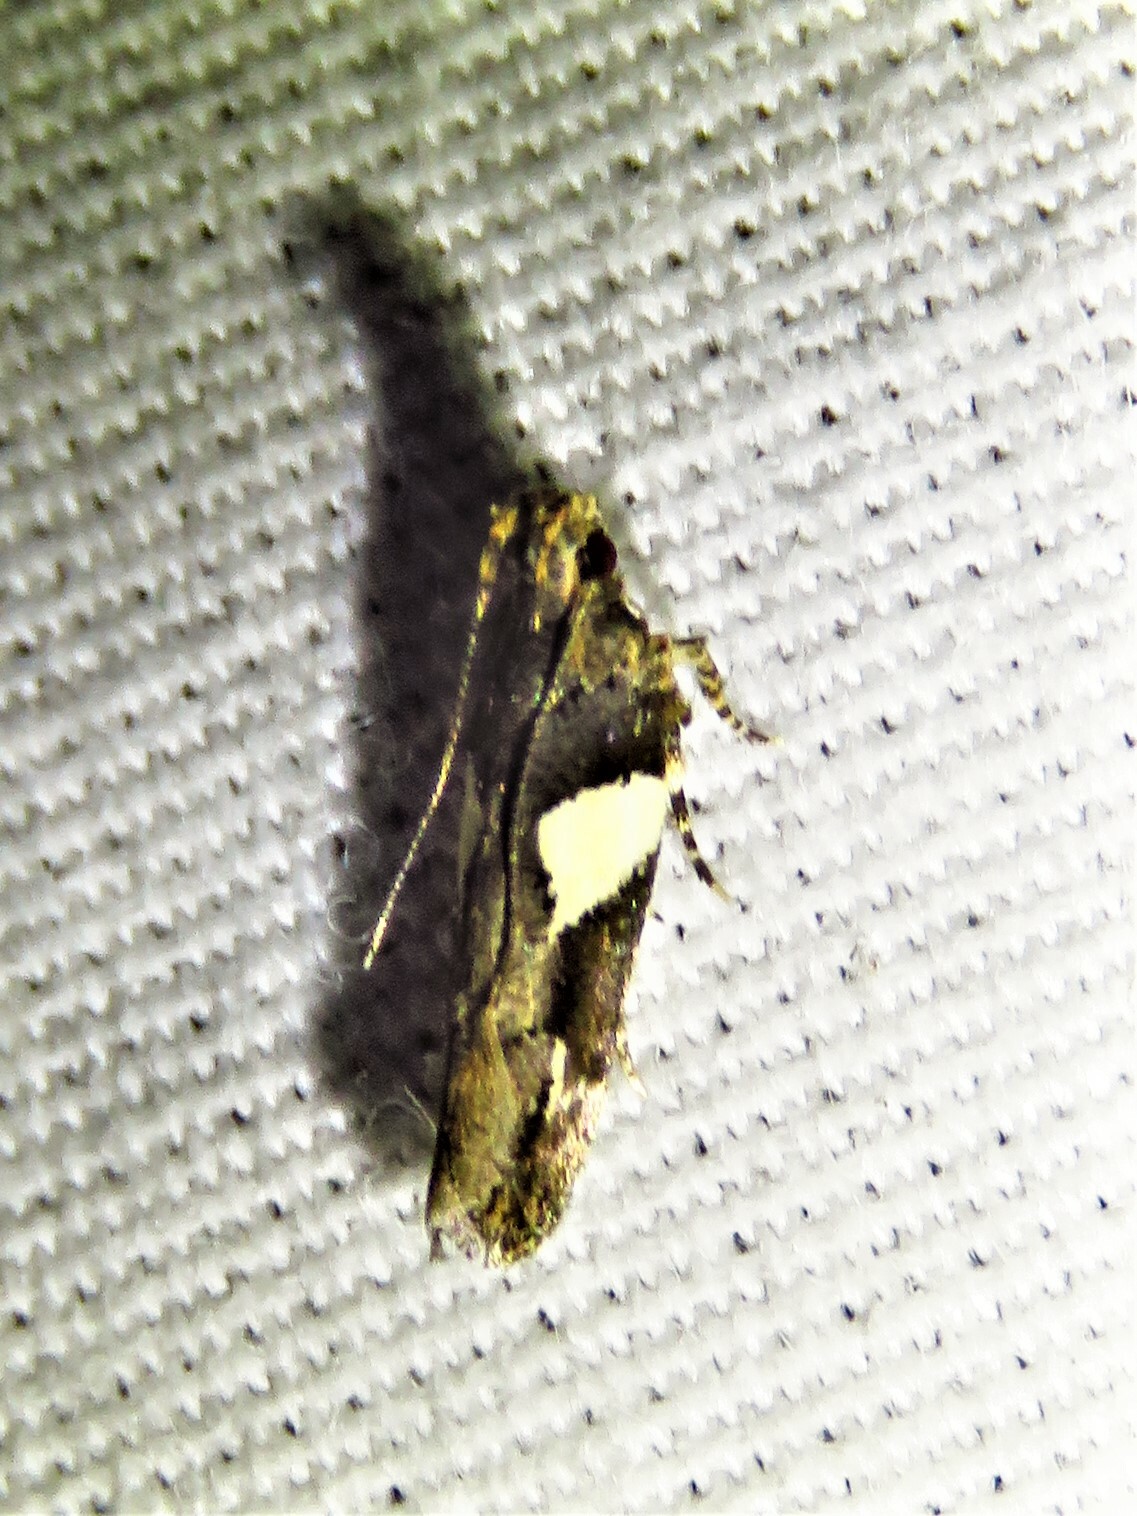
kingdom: Animalia
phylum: Arthropoda
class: Insecta
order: Lepidoptera
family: Gelechiidae
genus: Friseria
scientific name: Friseria acaciella
